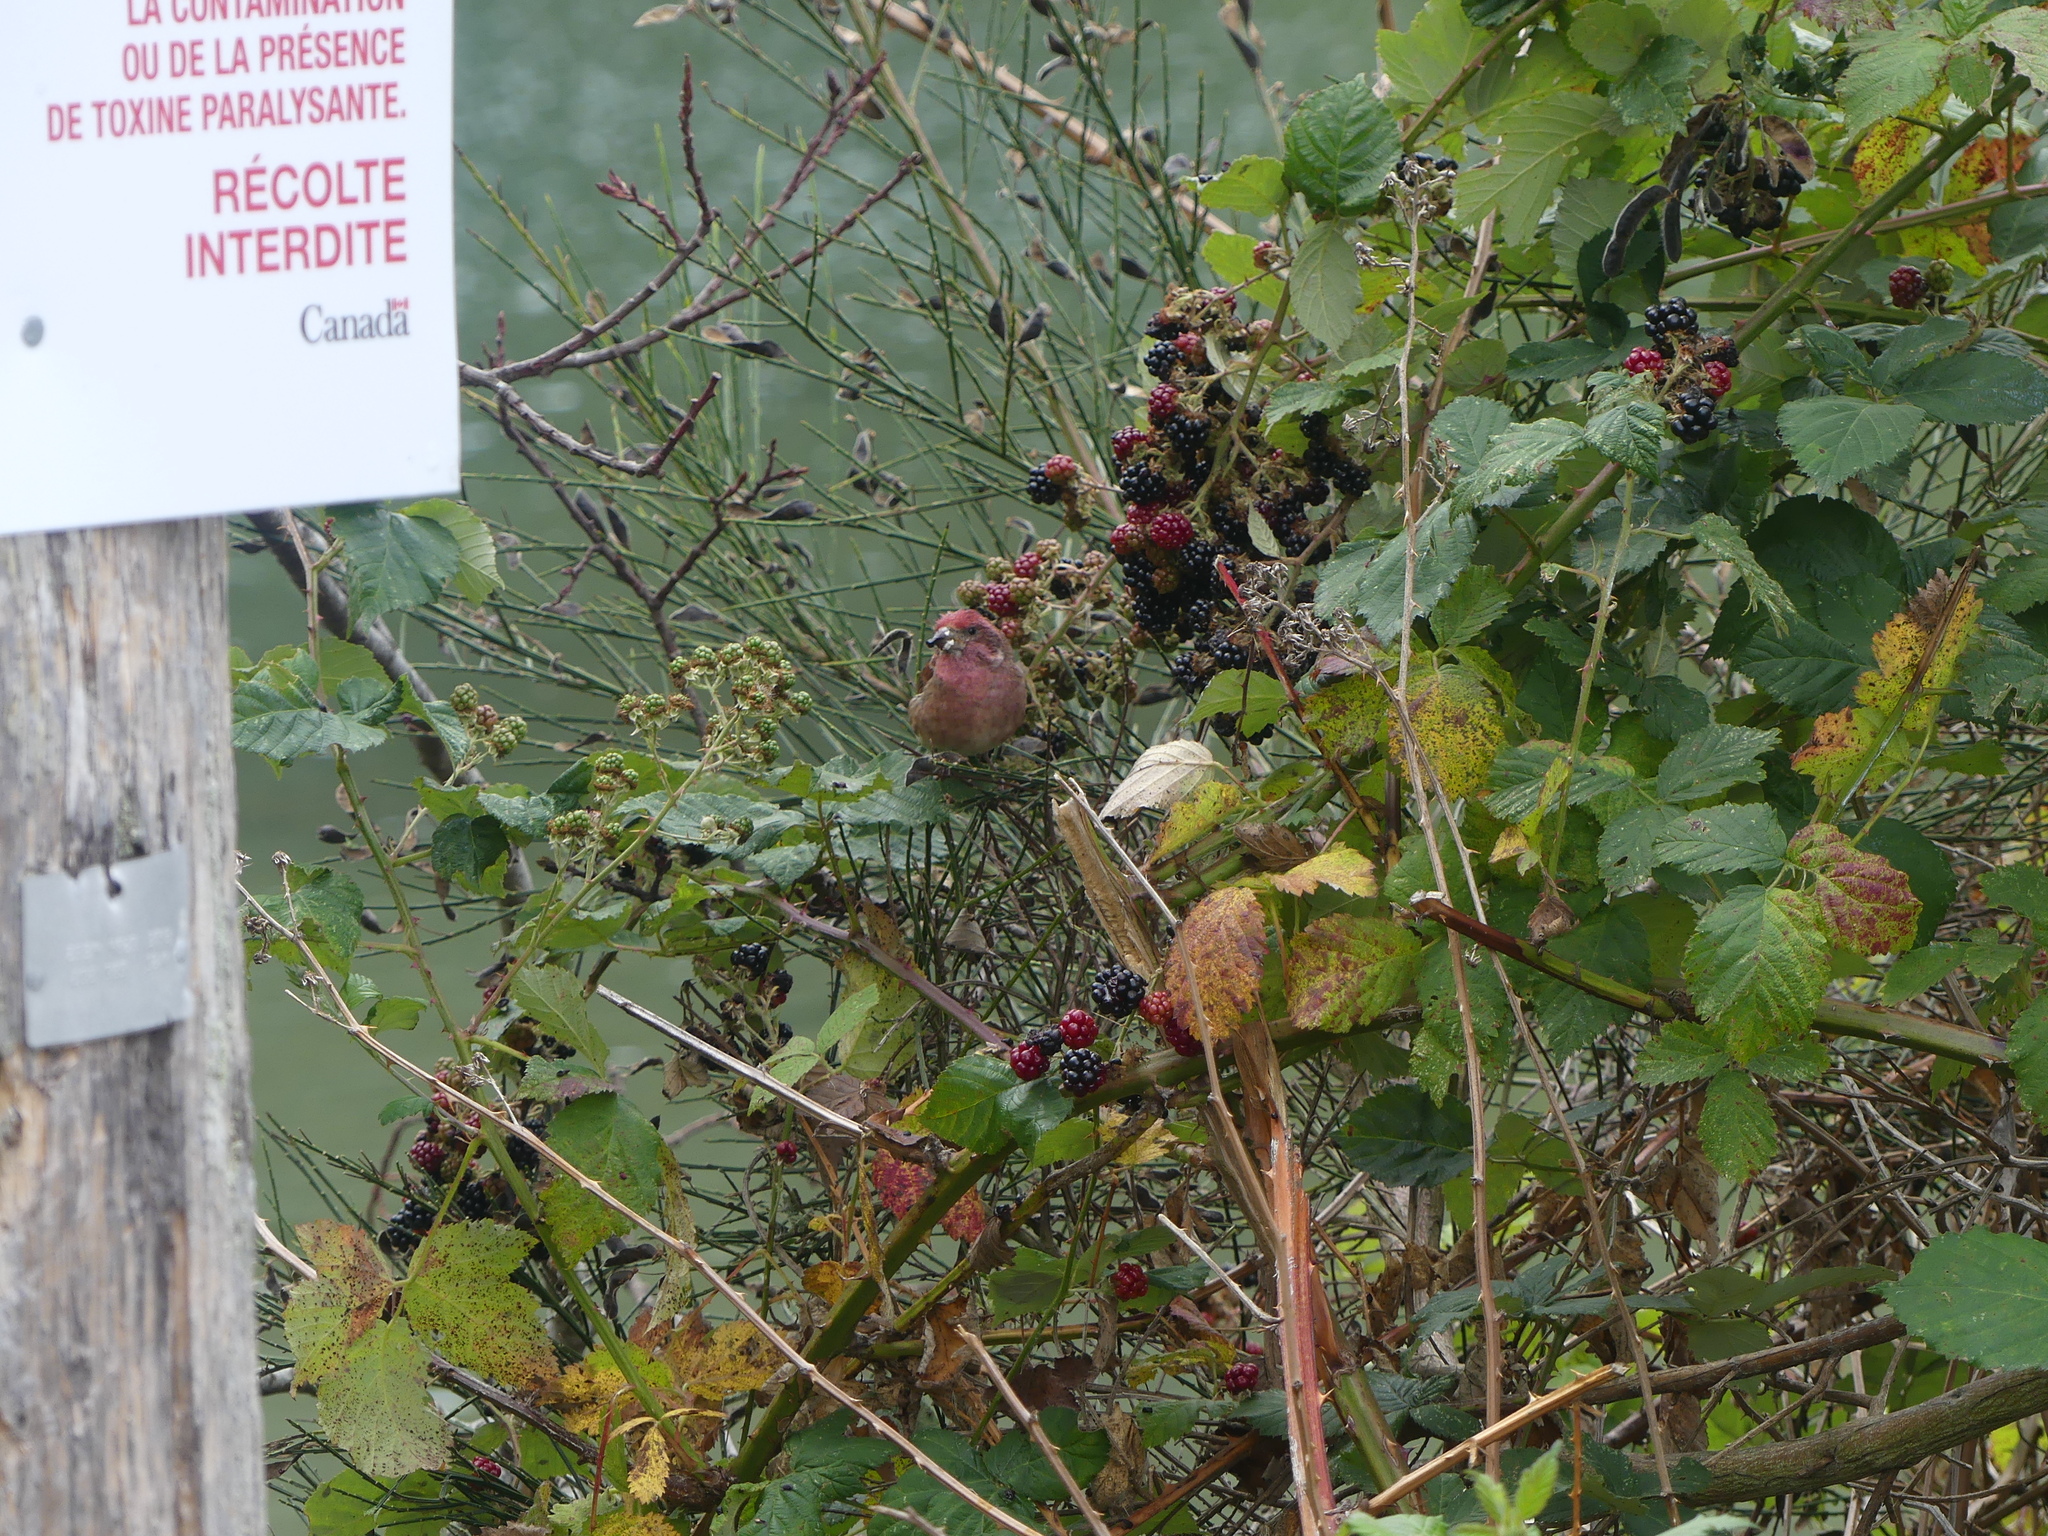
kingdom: Animalia
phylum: Chordata
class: Aves
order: Passeriformes
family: Fringillidae
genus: Haemorhous
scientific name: Haemorhous purpureus
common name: Purple finch
